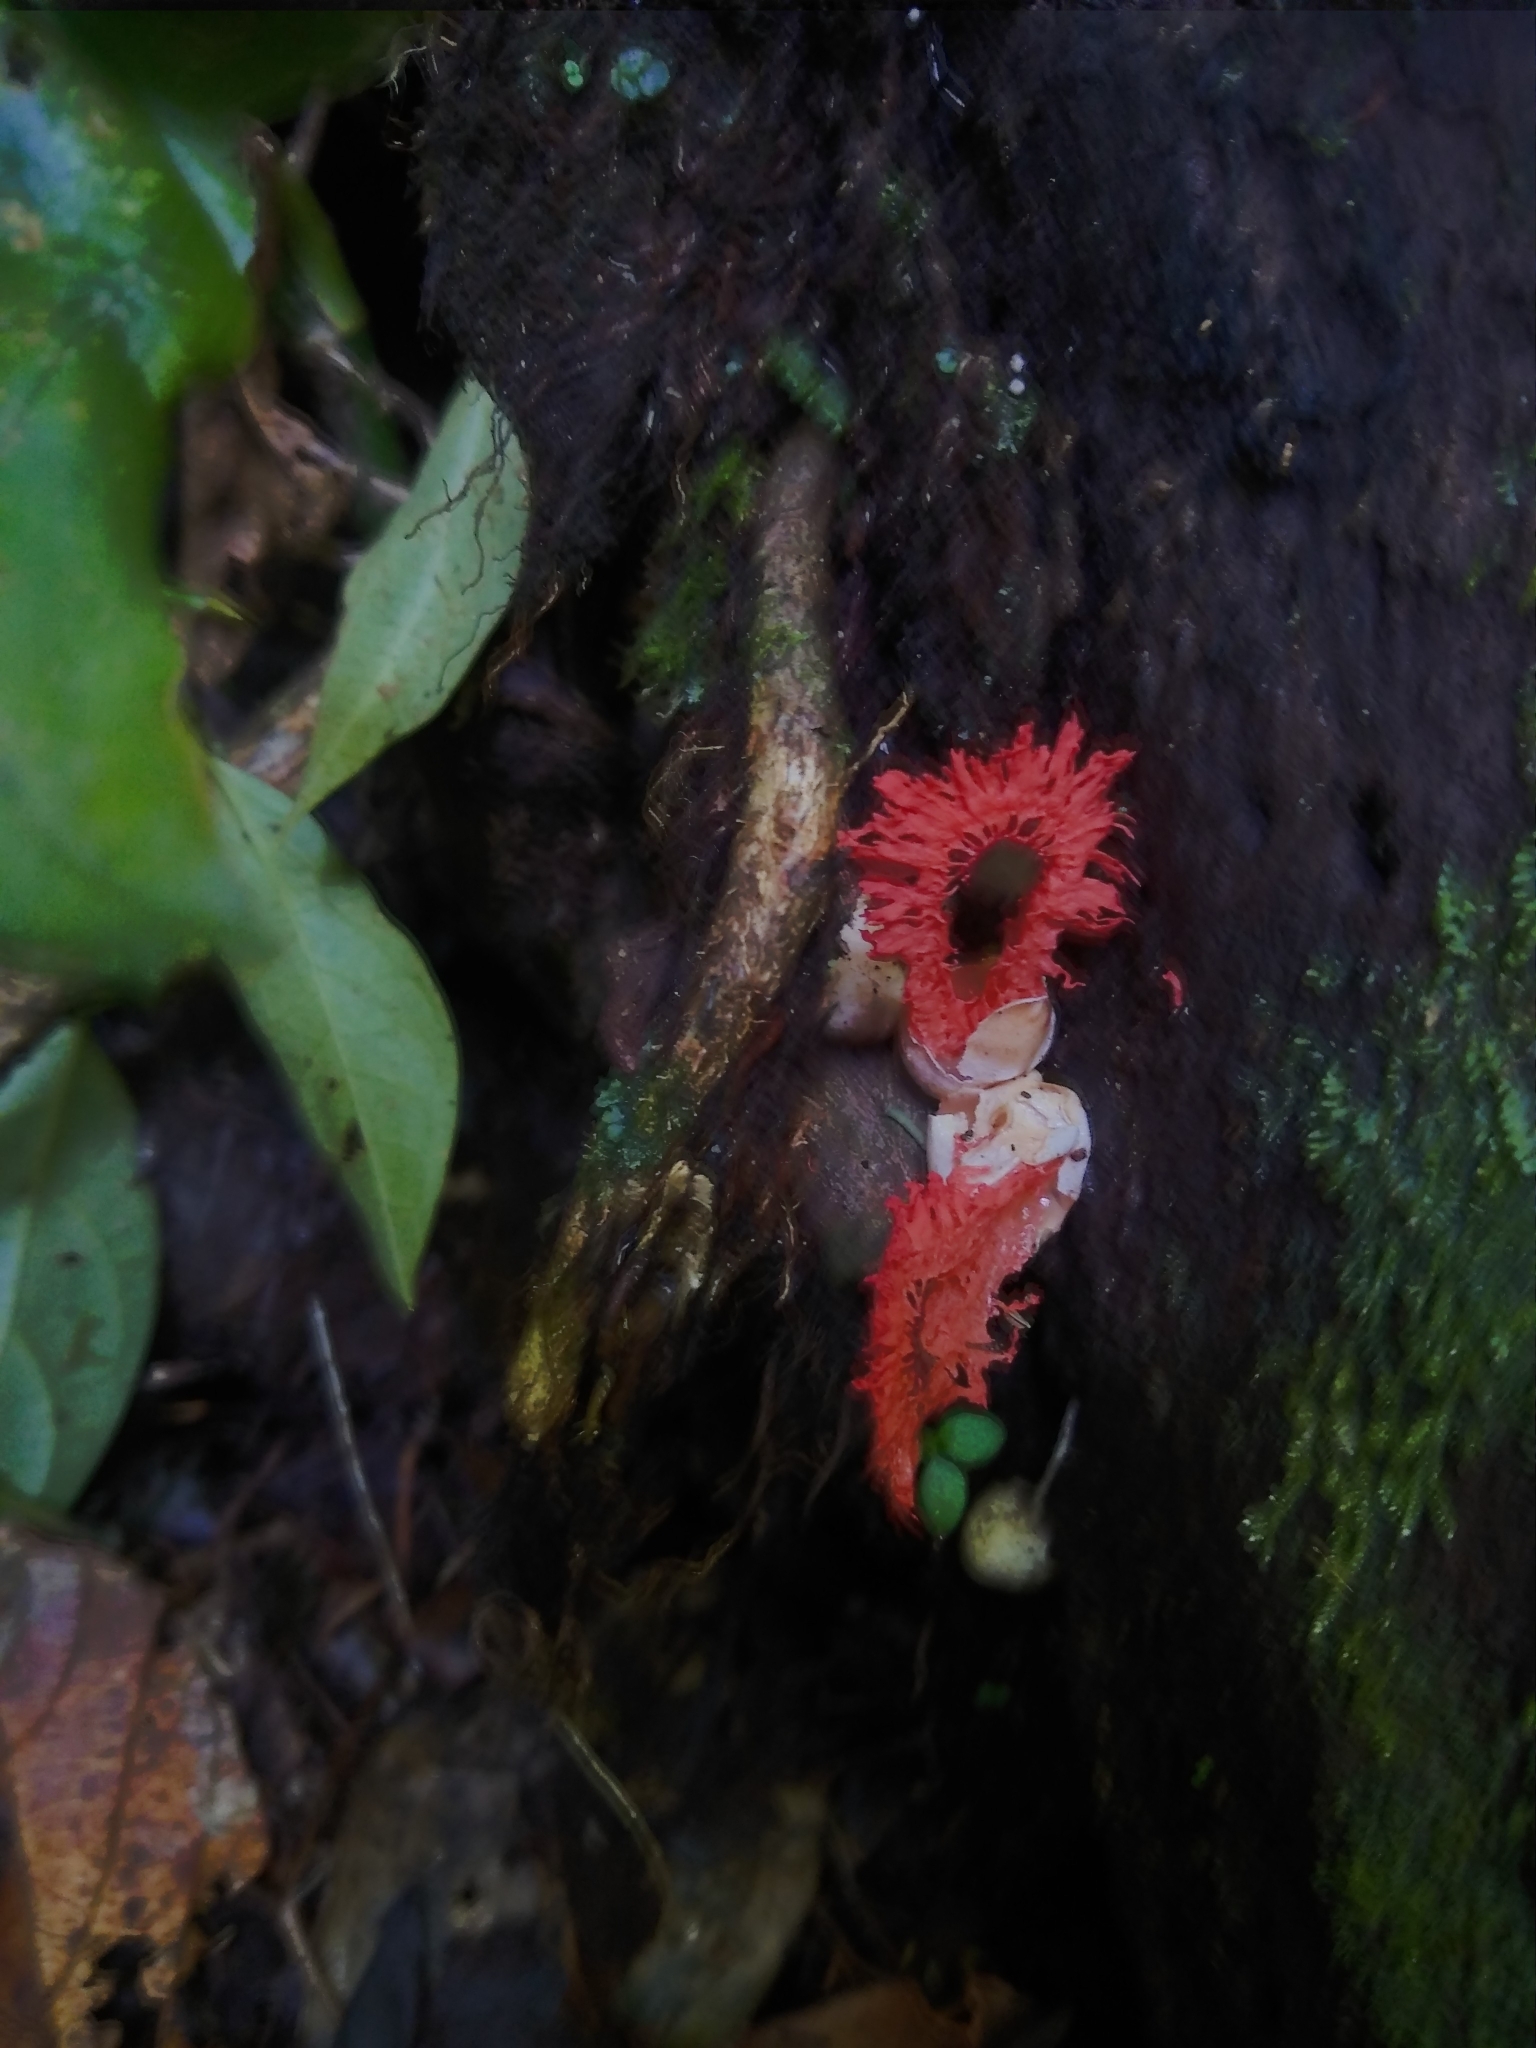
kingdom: Fungi
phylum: Basidiomycota
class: Agaricomycetes
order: Phallales
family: Phallaceae
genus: Laternea
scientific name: Laternea pusilla
